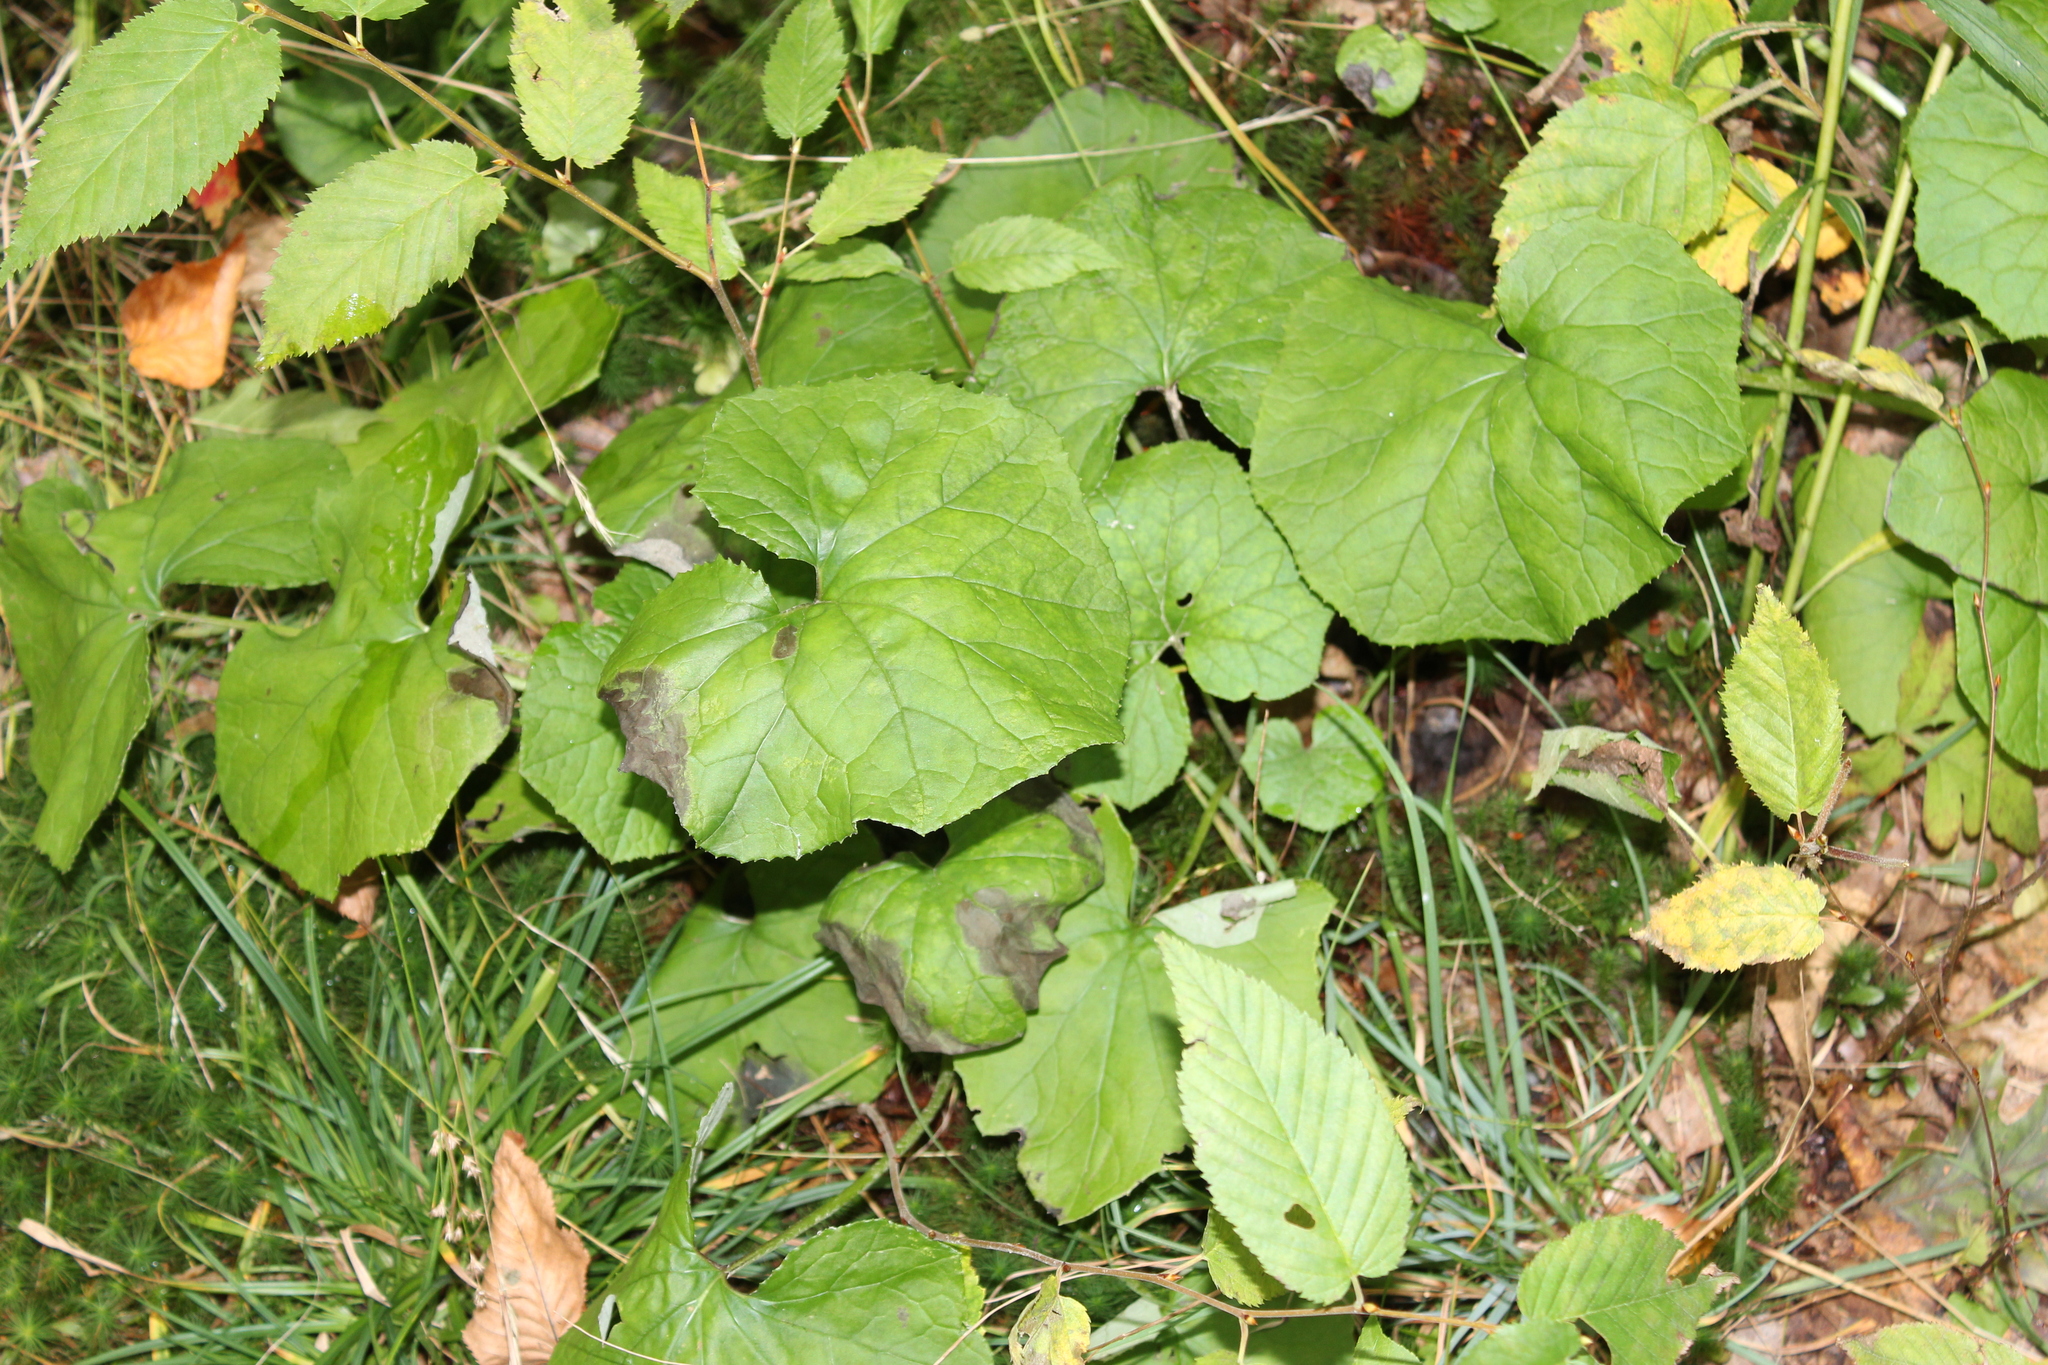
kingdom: Plantae
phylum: Tracheophyta
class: Magnoliopsida
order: Asterales
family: Asteraceae
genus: Tussilago
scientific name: Tussilago farfara
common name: Coltsfoot
